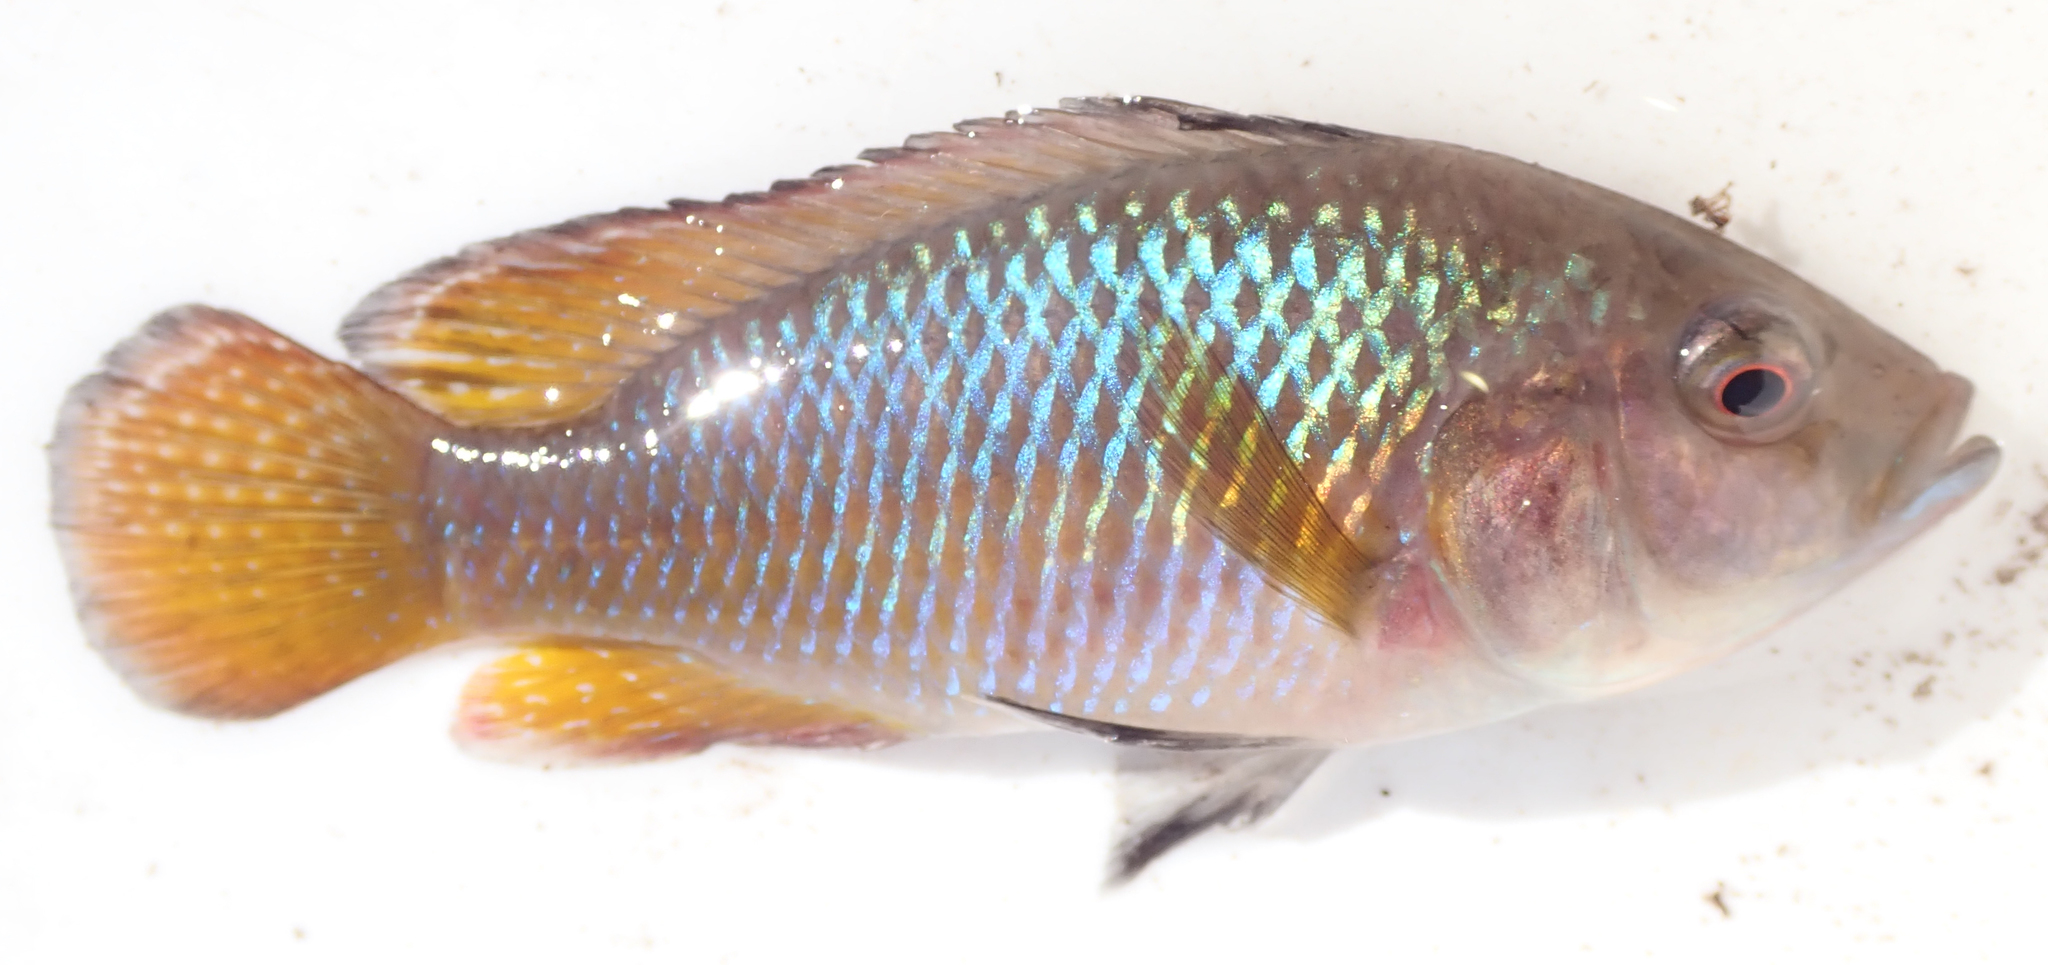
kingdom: Animalia
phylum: Chordata
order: Perciformes
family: Cichlidae
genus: Pseudocrenilabrus
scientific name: Pseudocrenilabrus philander
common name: Southern mouthbrooder
